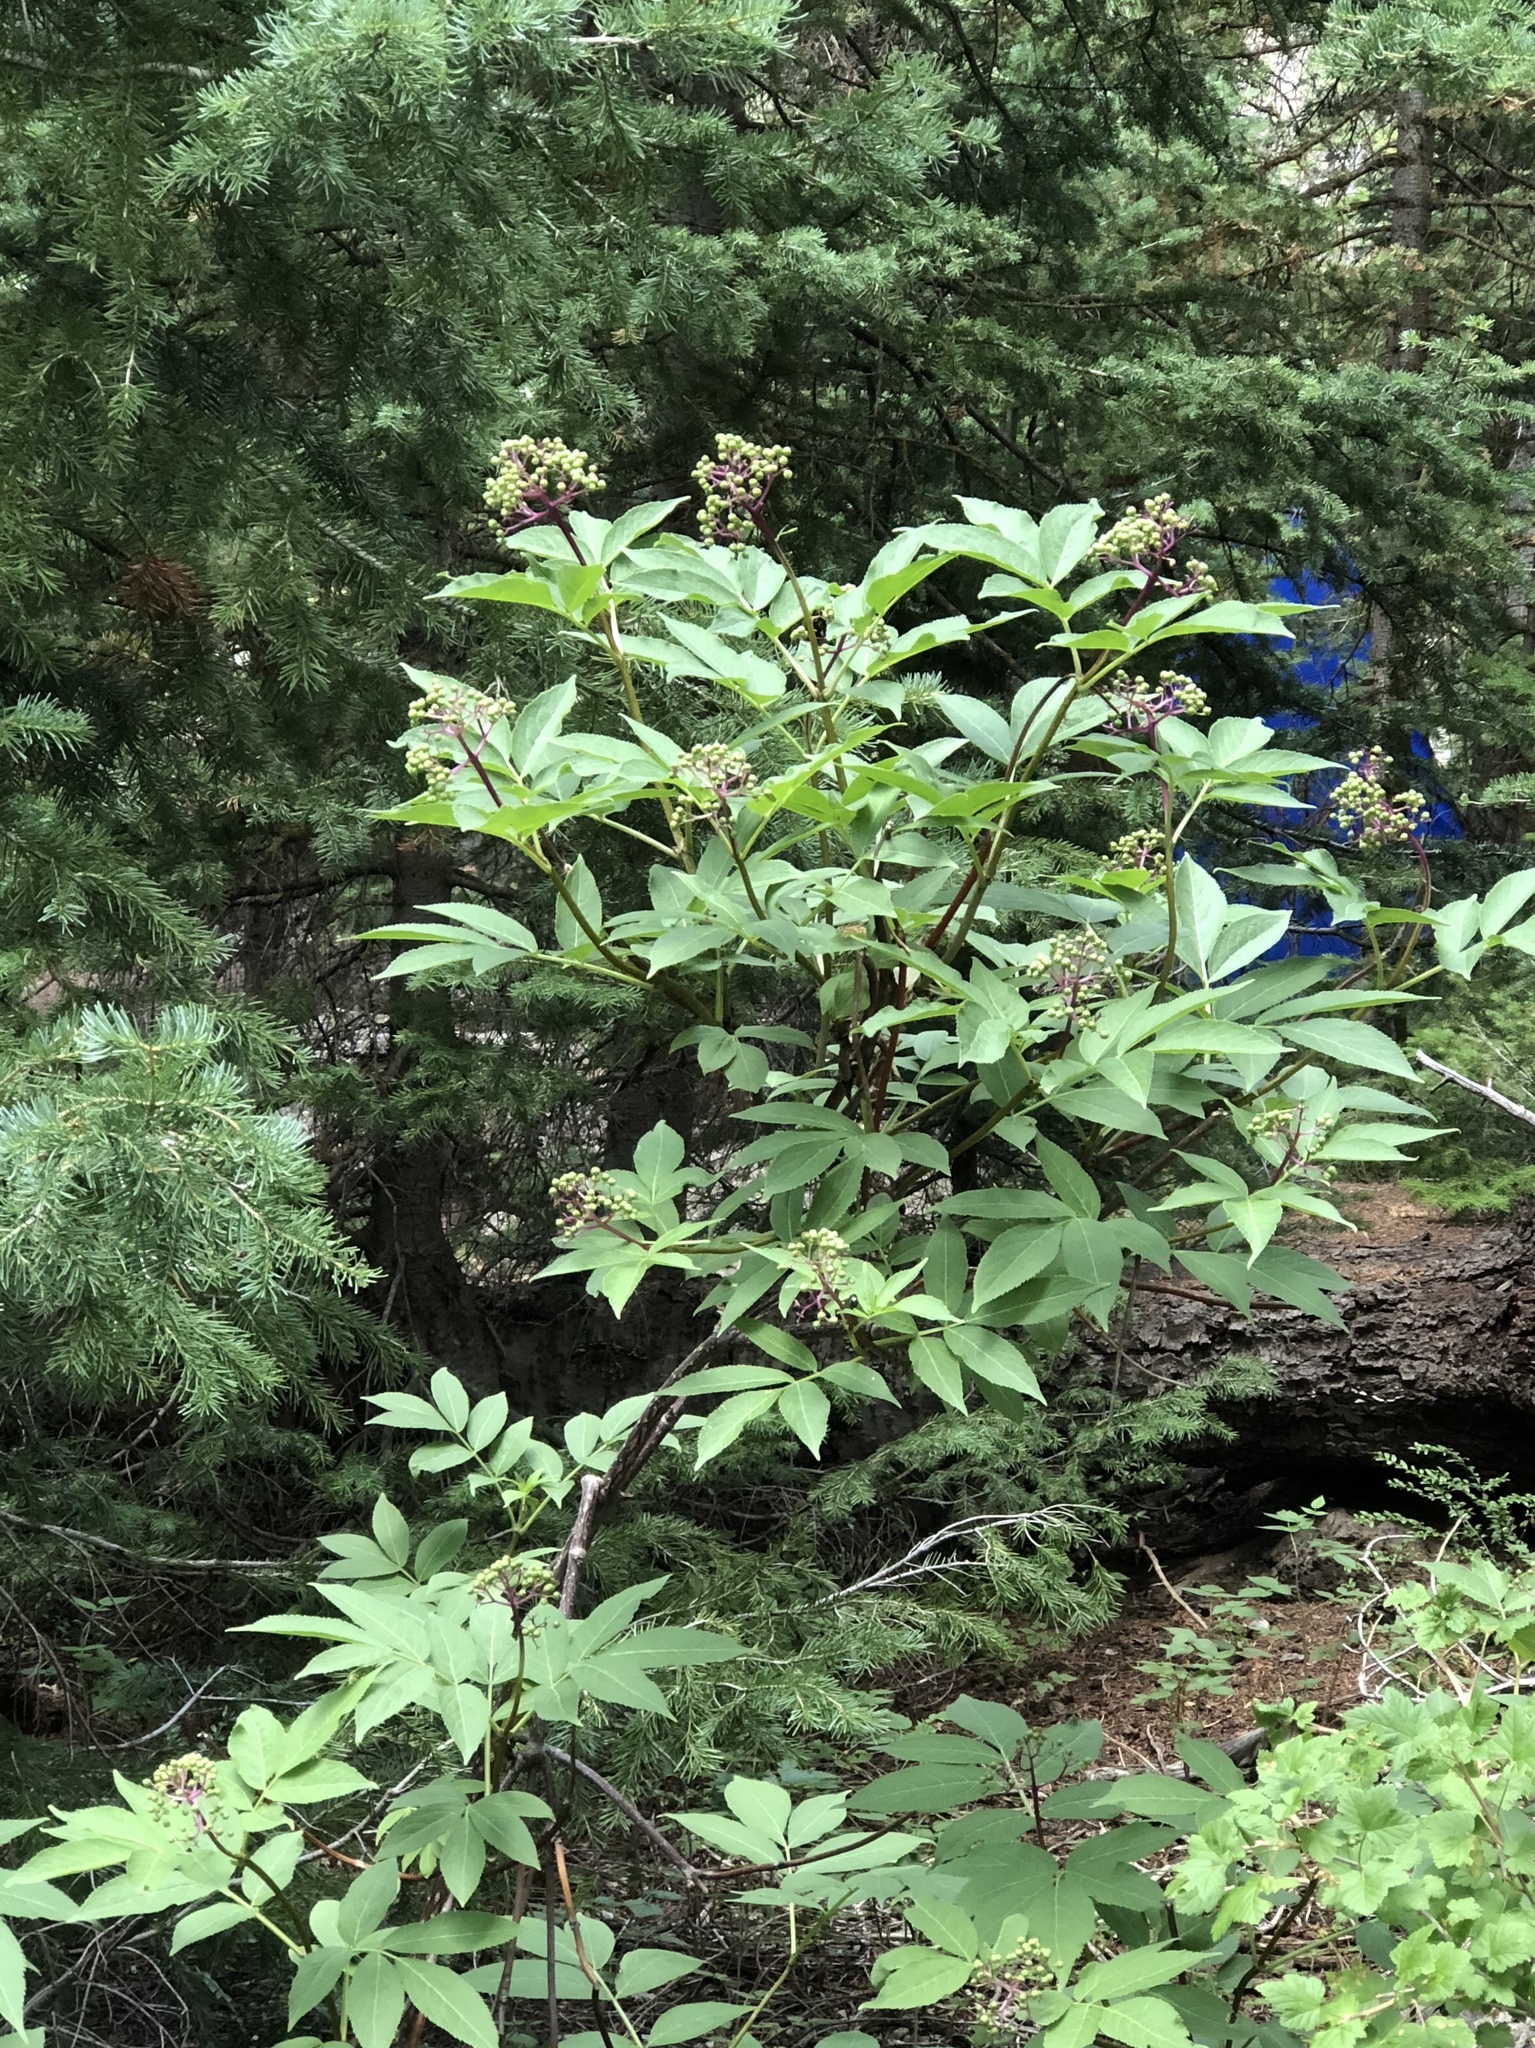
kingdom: Plantae
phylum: Tracheophyta
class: Magnoliopsida
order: Dipsacales
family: Viburnaceae
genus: Sambucus
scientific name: Sambucus racemosa
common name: Red-berried elder
